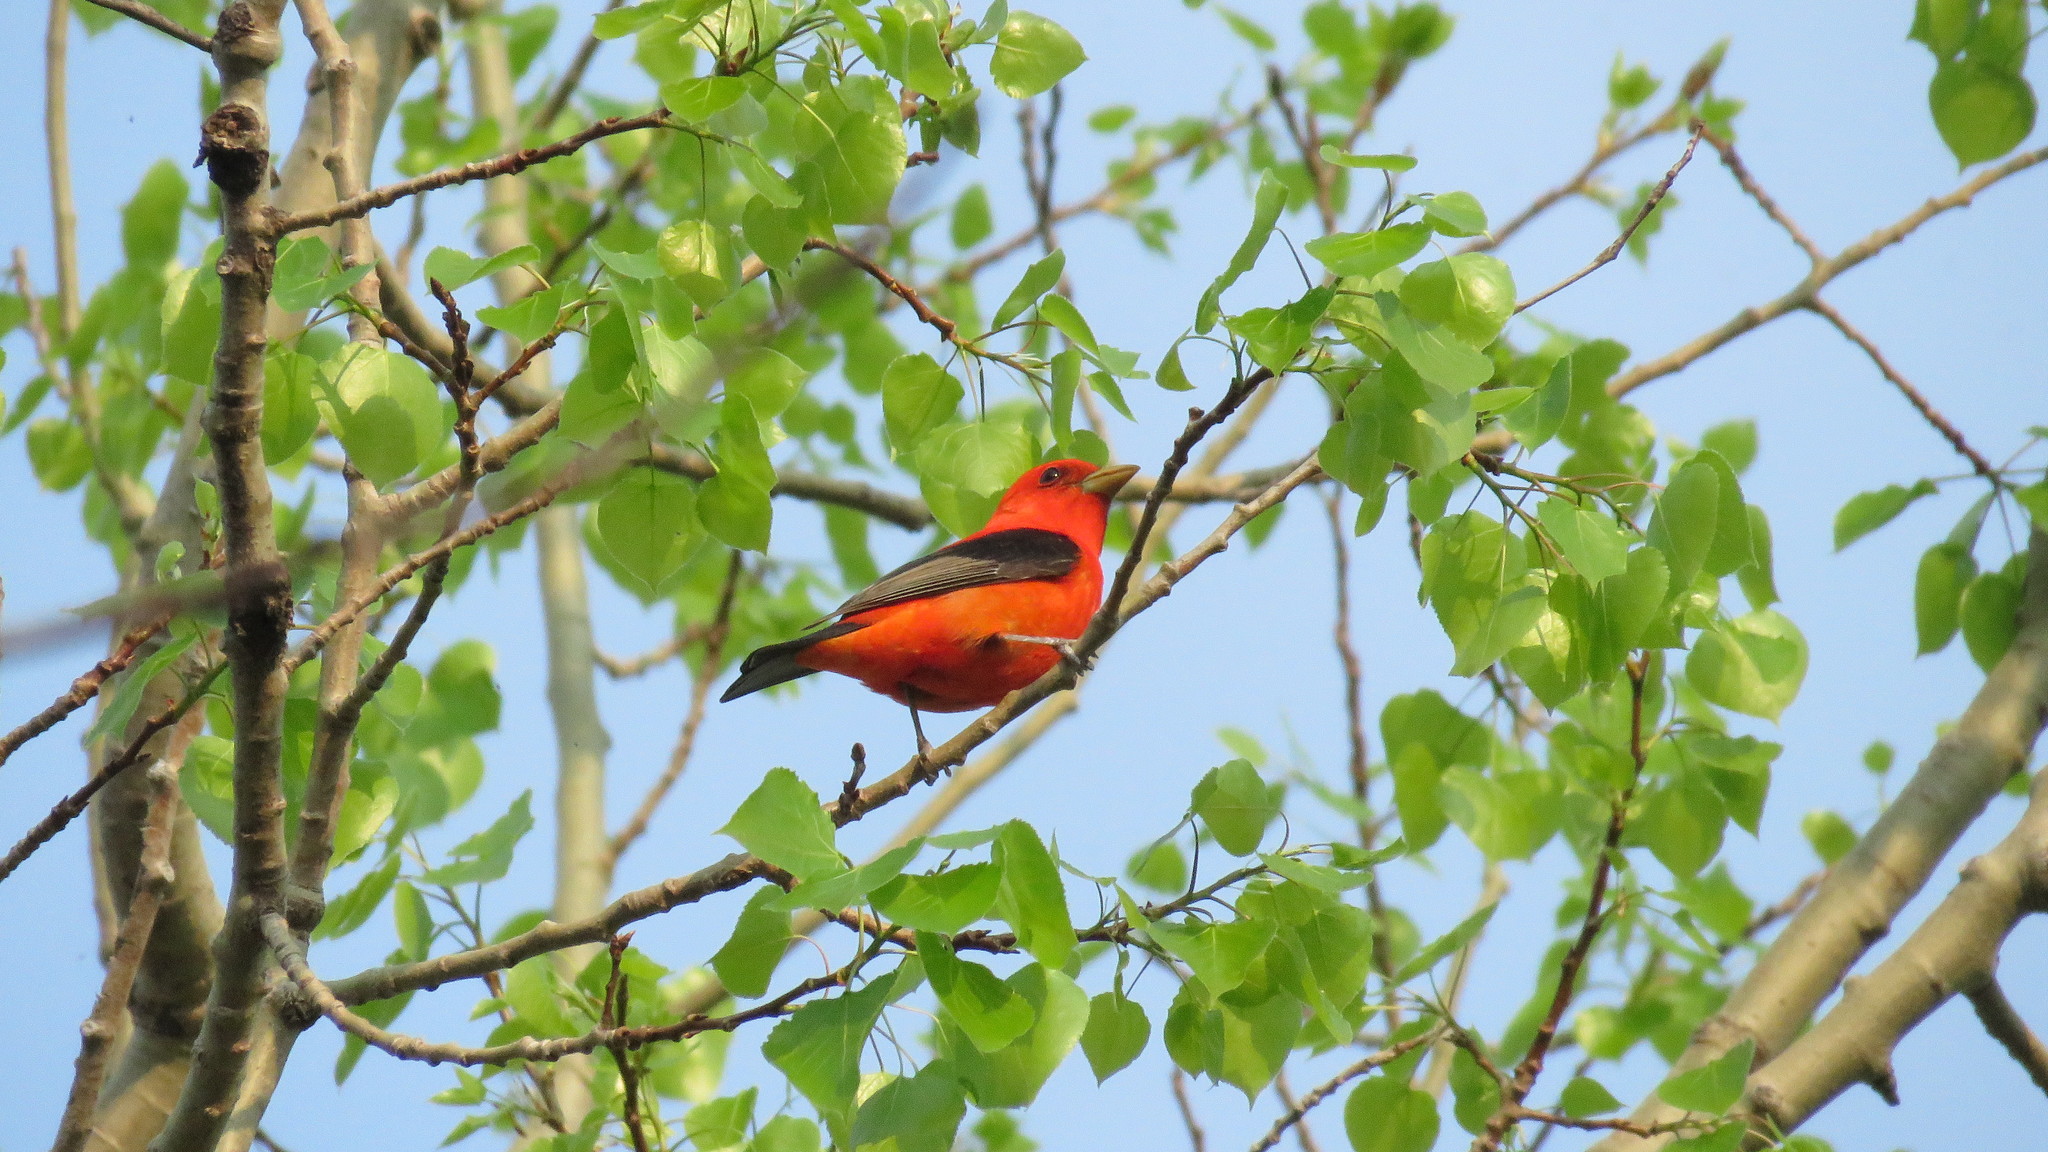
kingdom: Animalia
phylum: Chordata
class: Aves
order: Passeriformes
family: Cardinalidae
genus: Piranga
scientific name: Piranga olivacea
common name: Scarlet tanager
